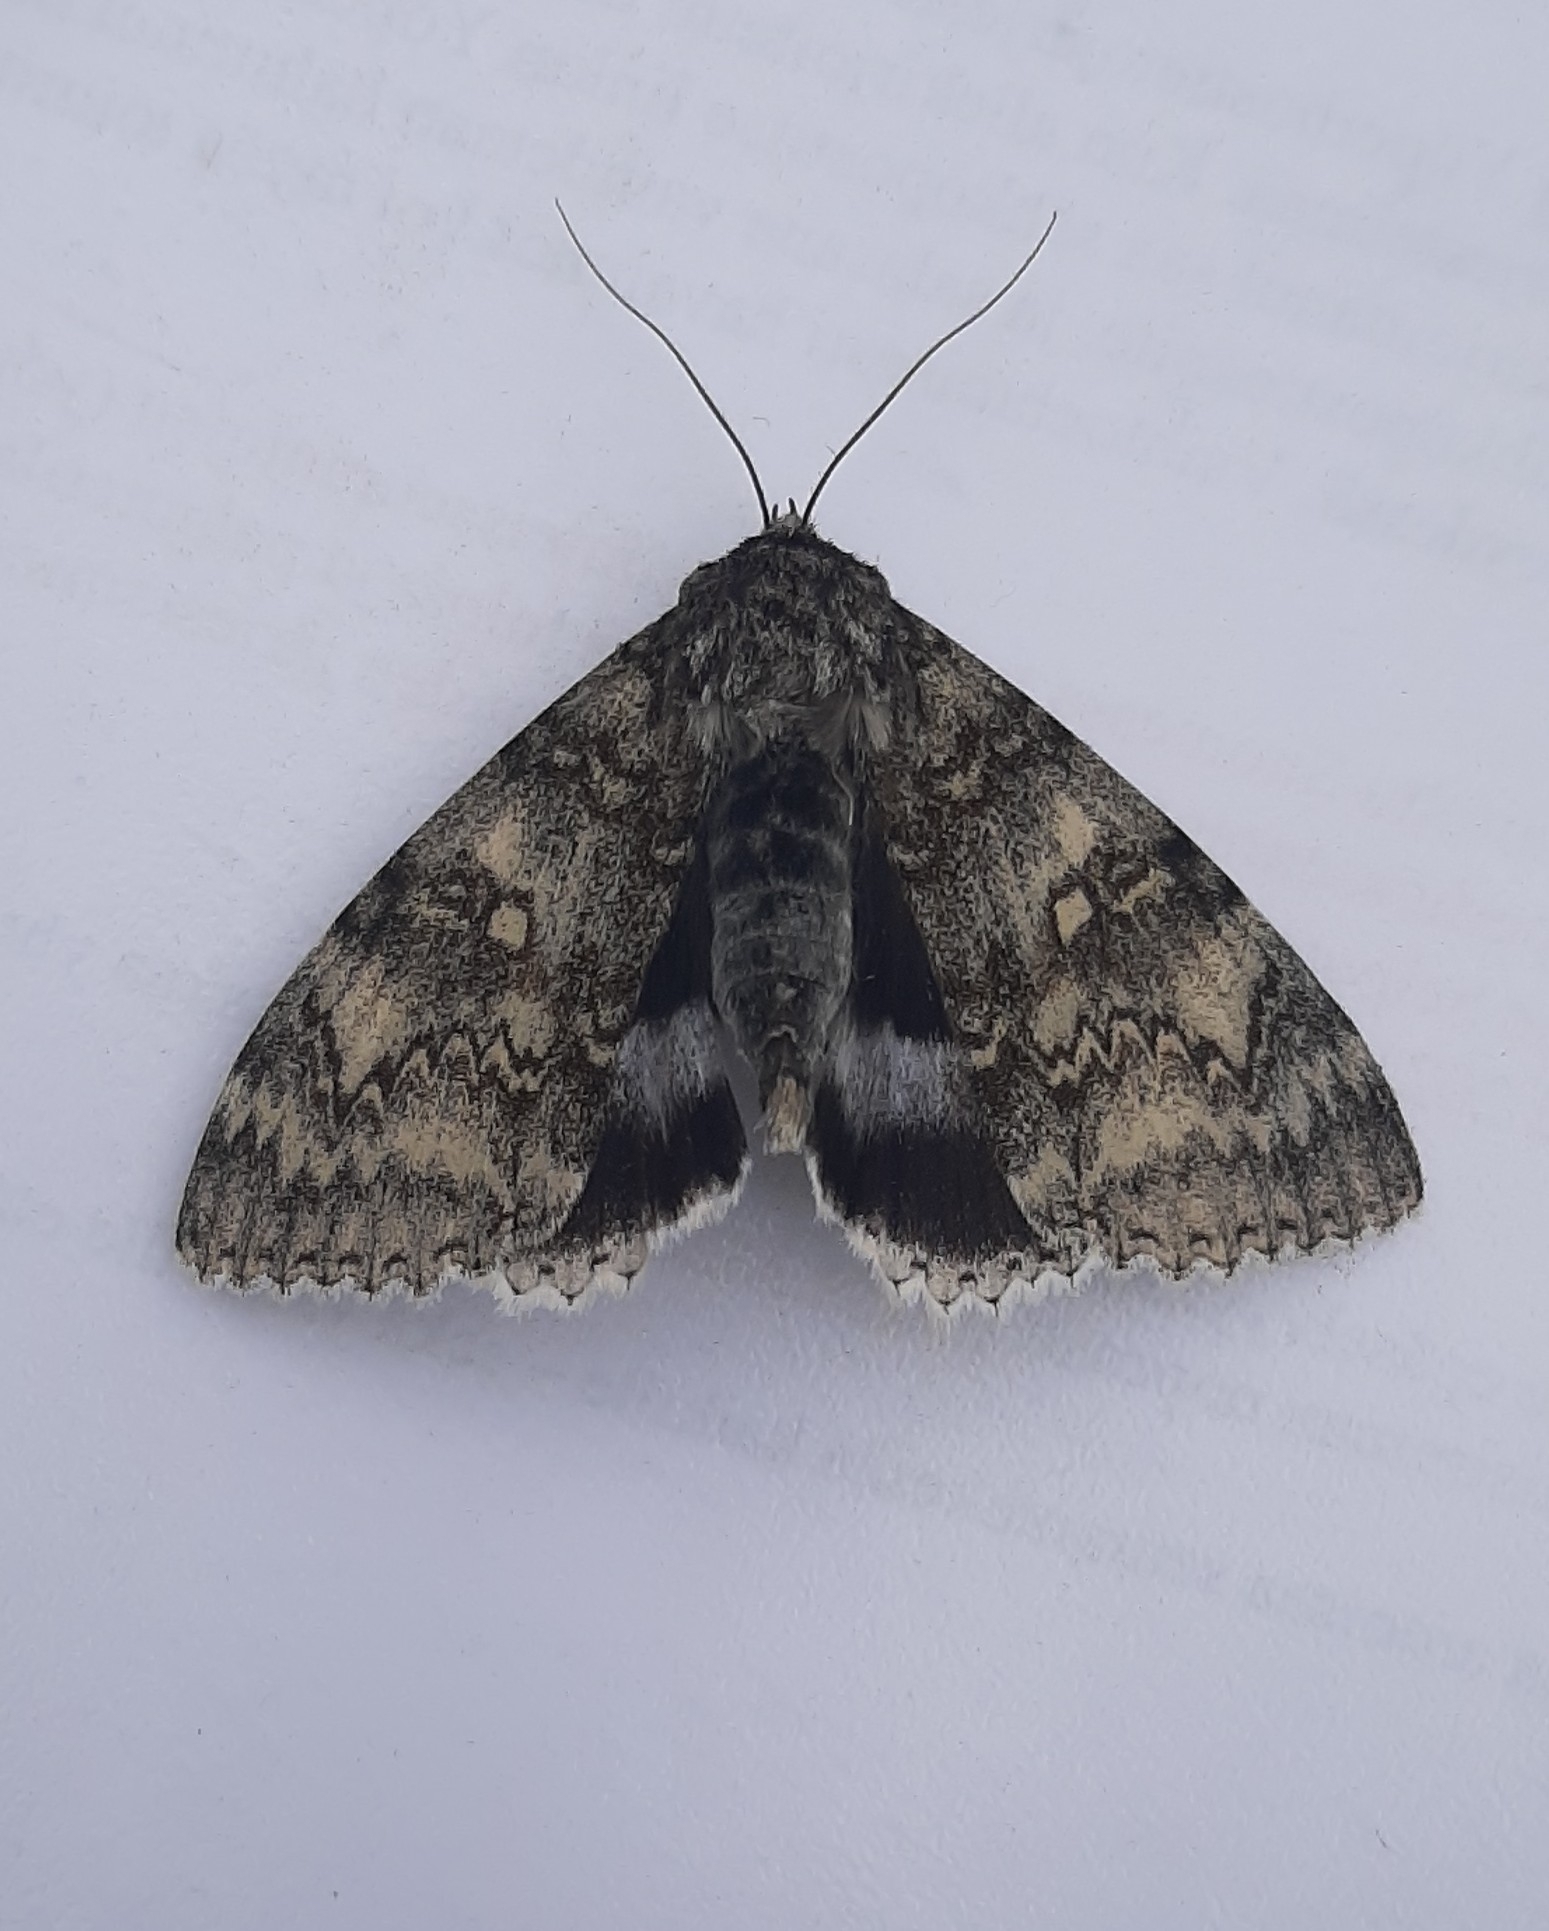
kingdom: Animalia
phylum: Arthropoda
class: Insecta
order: Lepidoptera
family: Erebidae
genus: Catocala
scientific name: Catocala fraxini
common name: Clifden nonpareil
